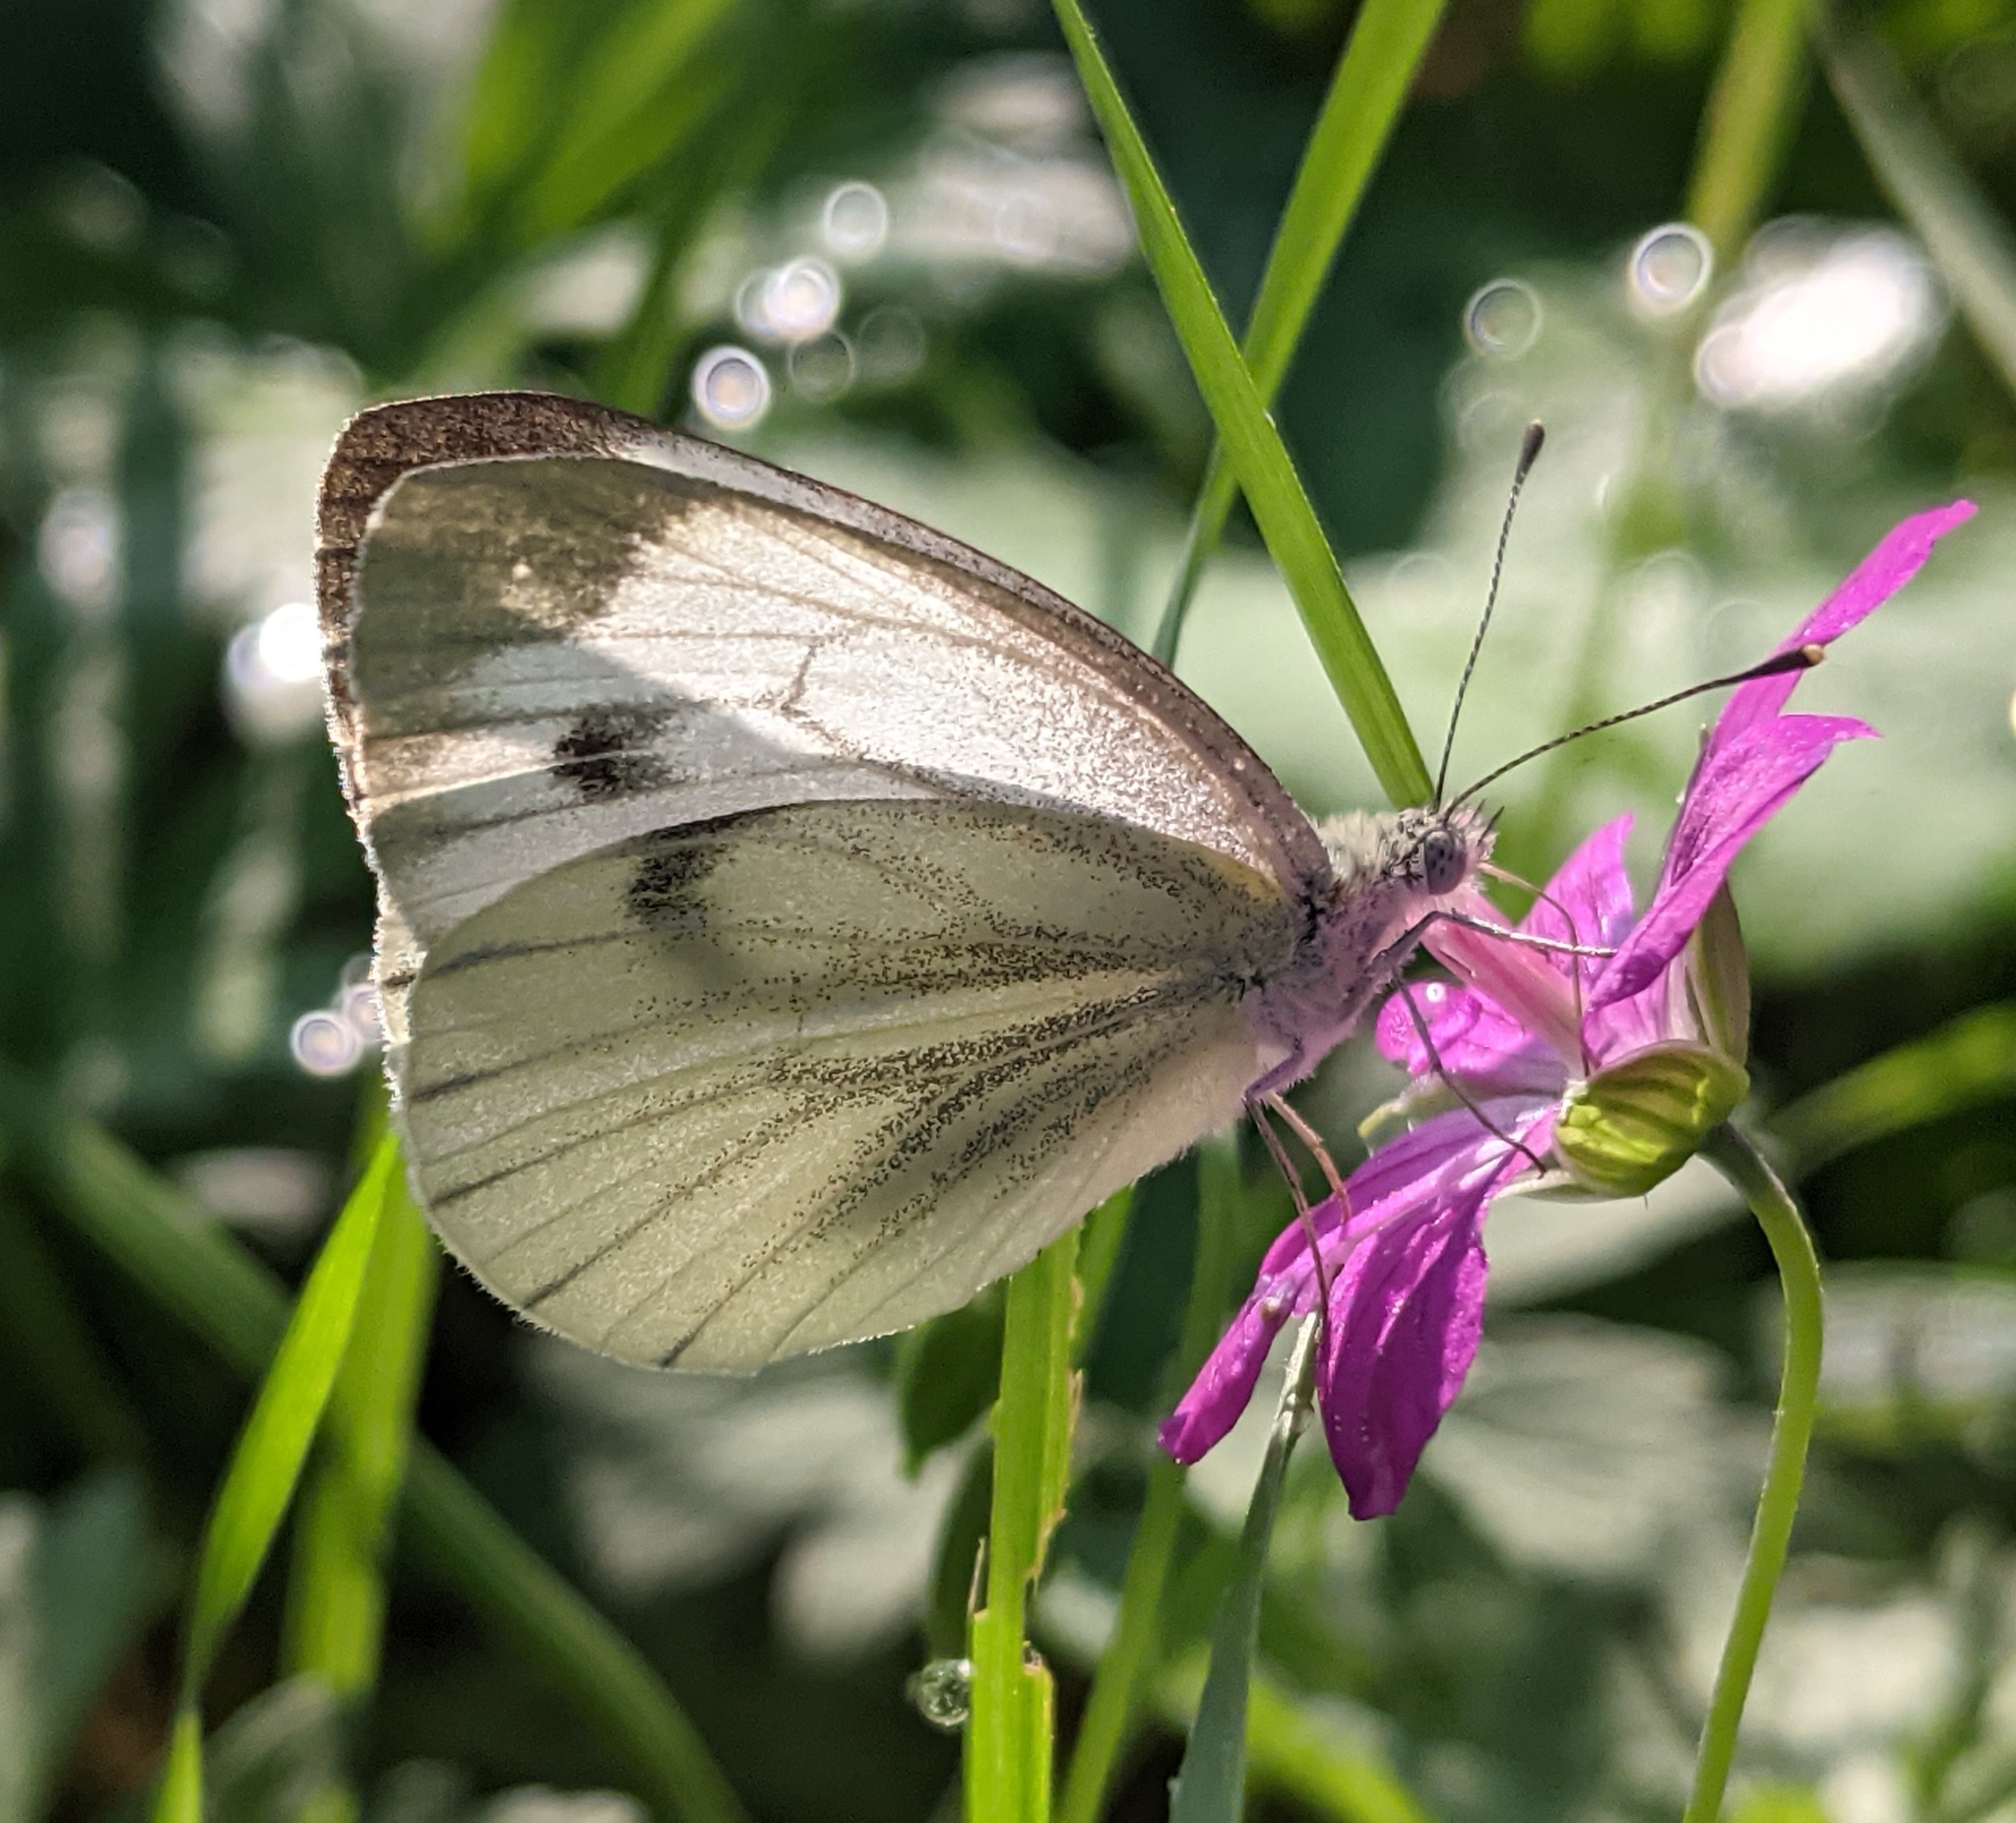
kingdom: Animalia
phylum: Arthropoda
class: Insecta
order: Lepidoptera
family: Pieridae
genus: Pieris
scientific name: Pieris napi
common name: Green-veined white
